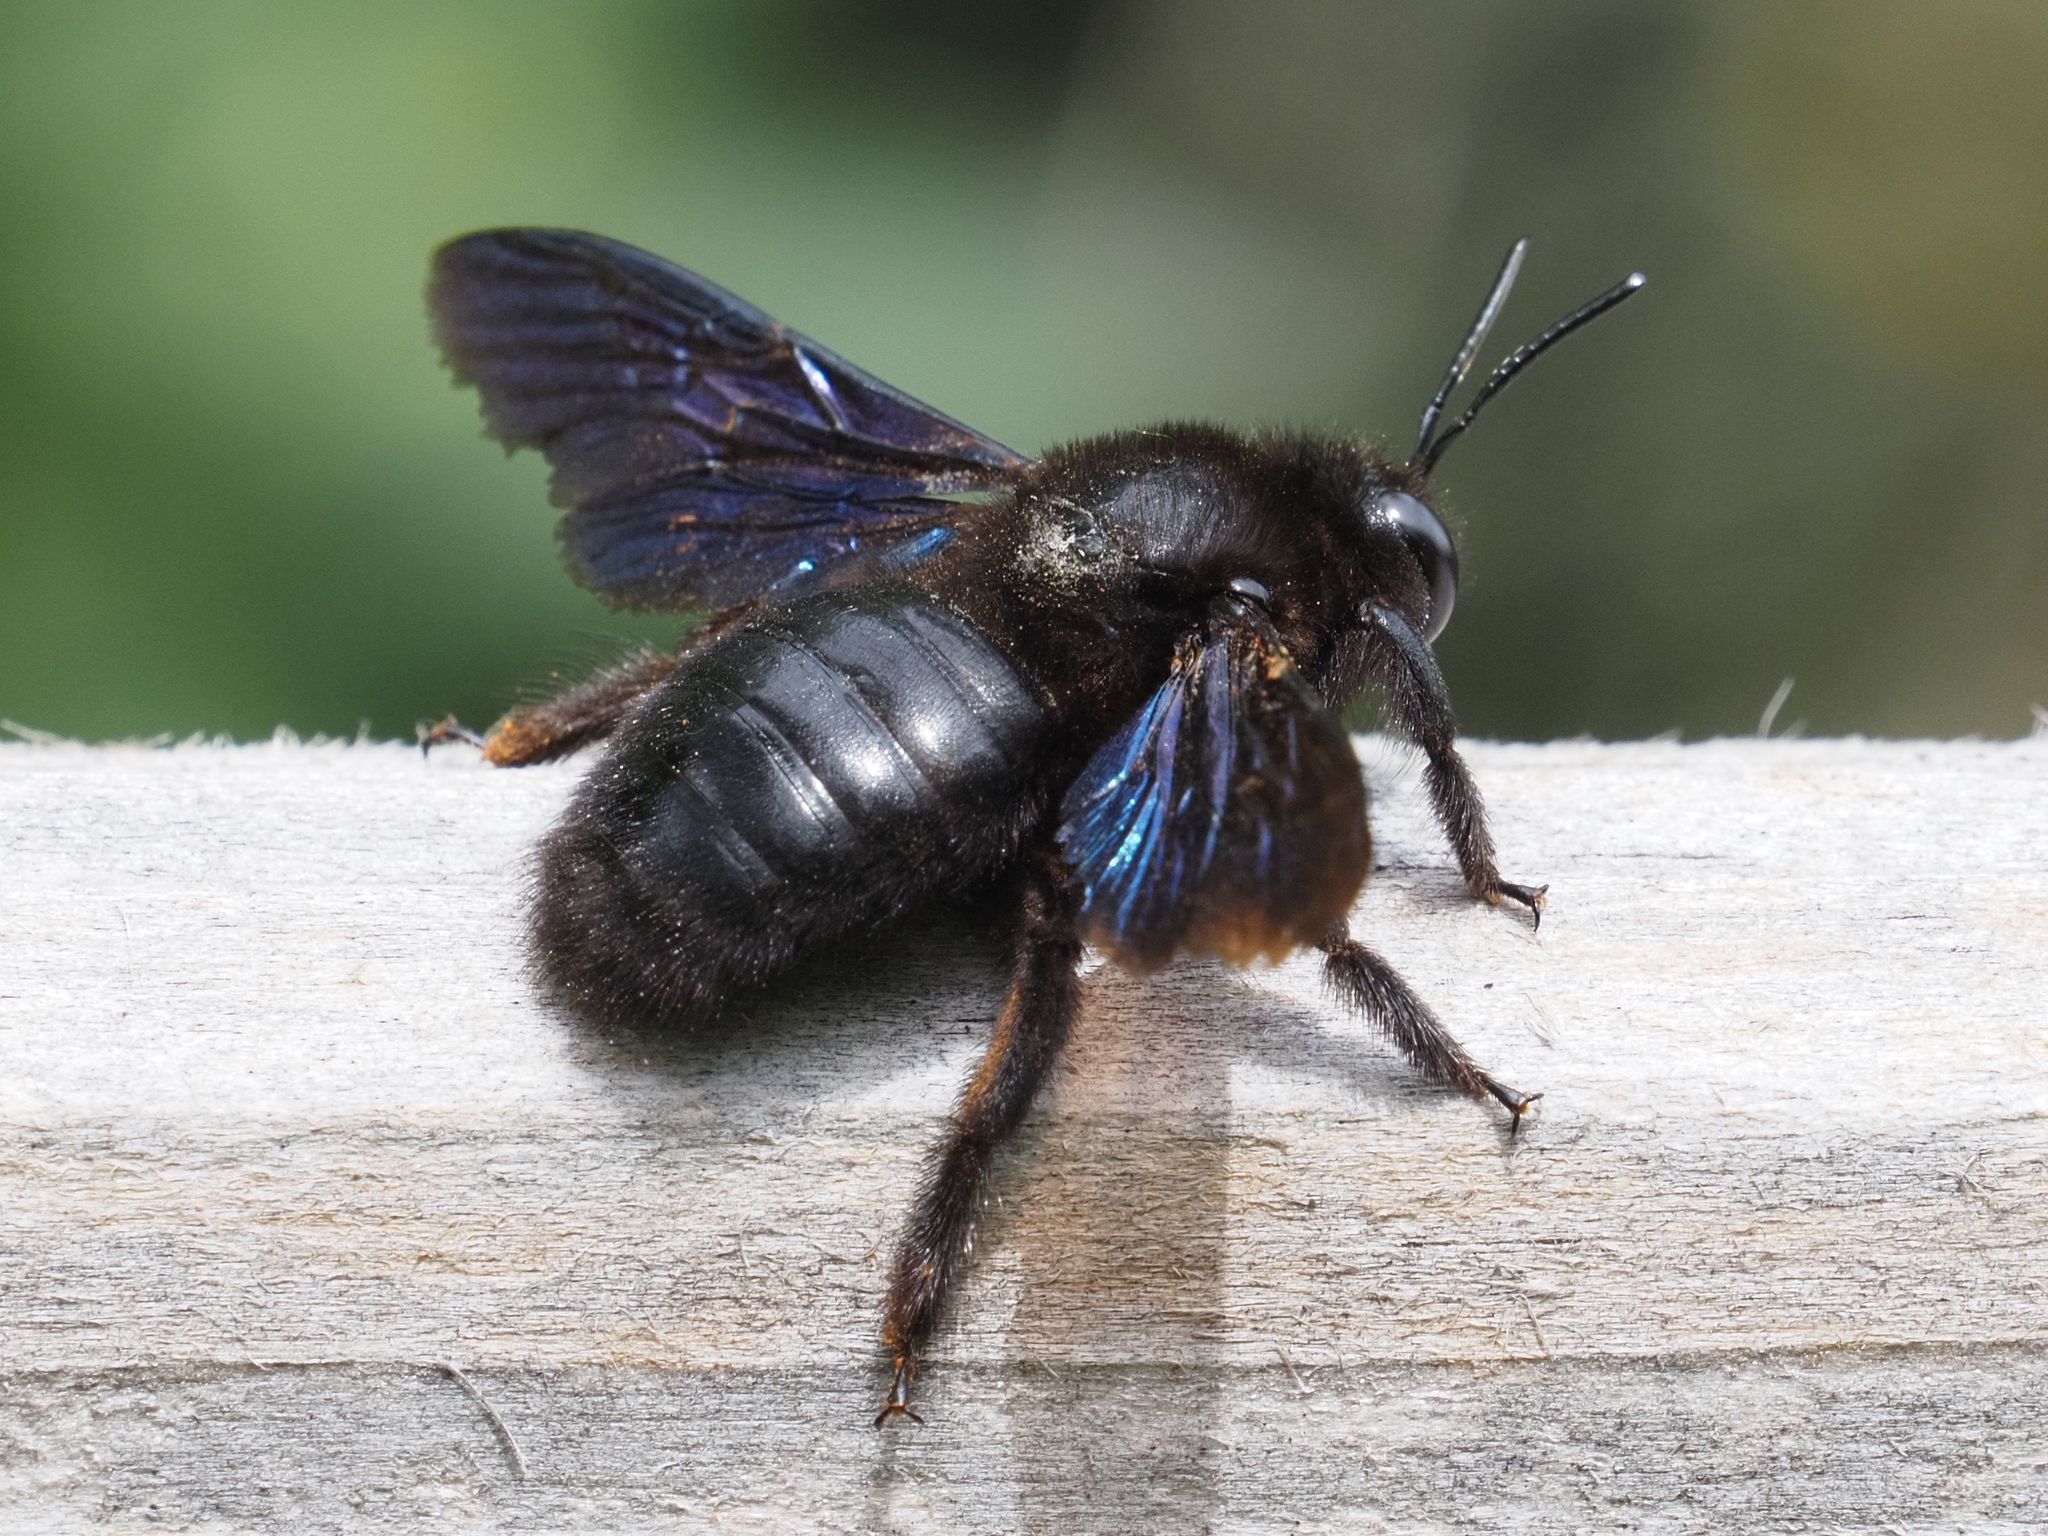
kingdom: Animalia
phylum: Arthropoda
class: Insecta
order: Hymenoptera
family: Apidae
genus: Xylocopa
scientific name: Xylocopa valga
